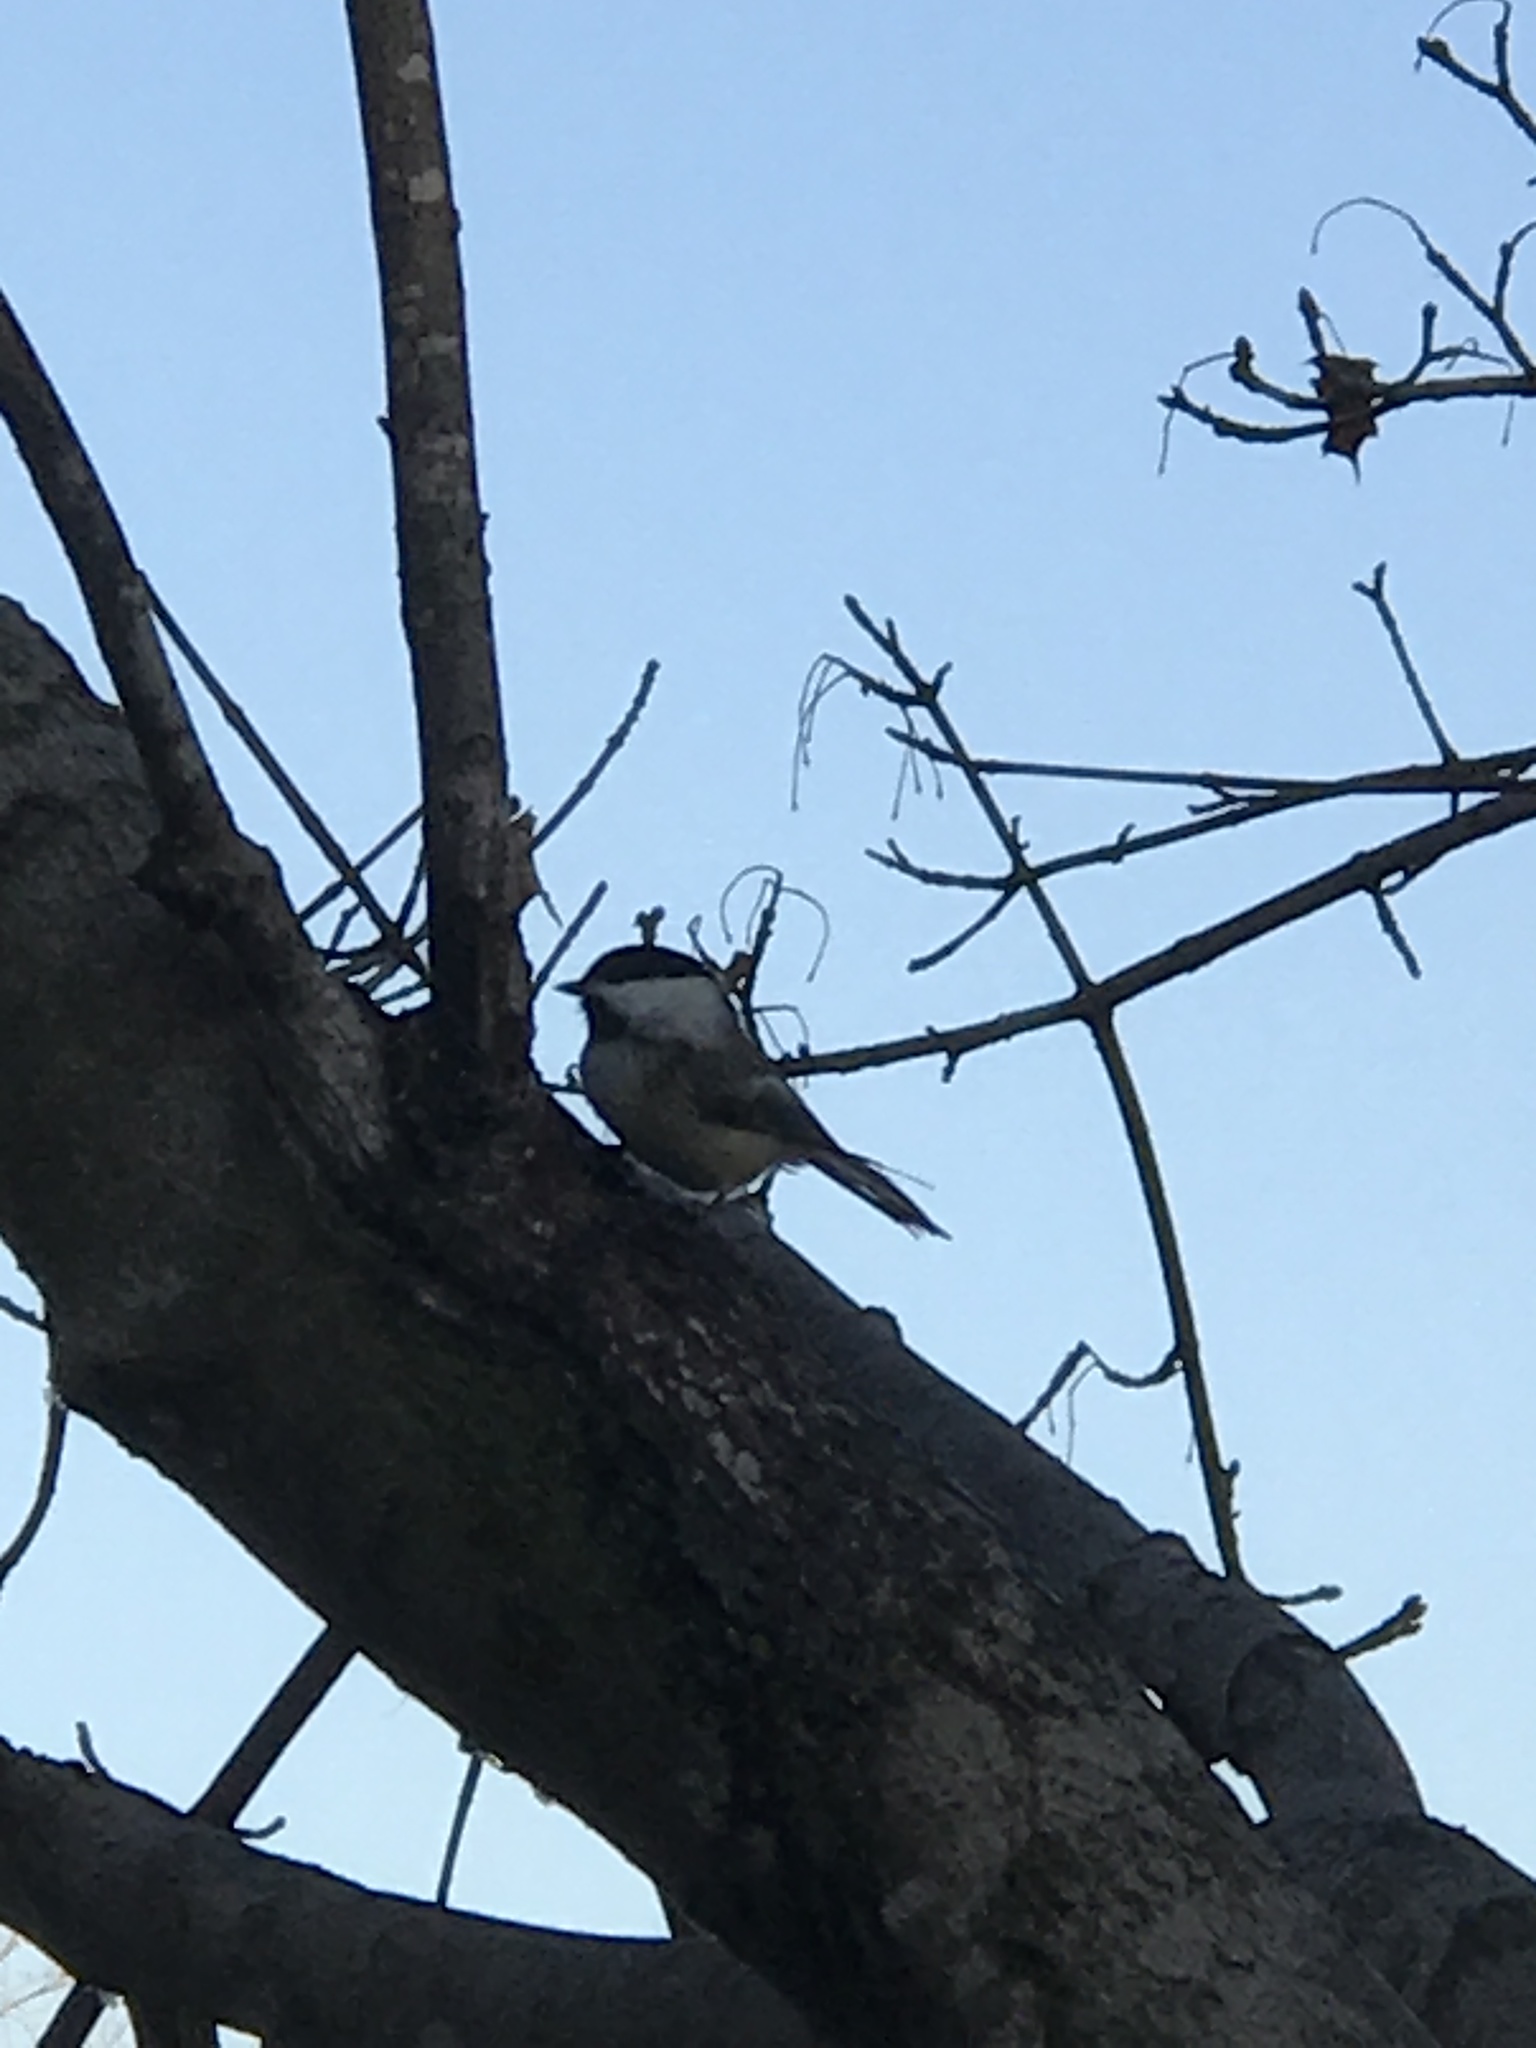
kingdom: Animalia
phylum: Chordata
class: Aves
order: Passeriformes
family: Paridae
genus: Poecile
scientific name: Poecile atricapillus
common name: Black-capped chickadee
